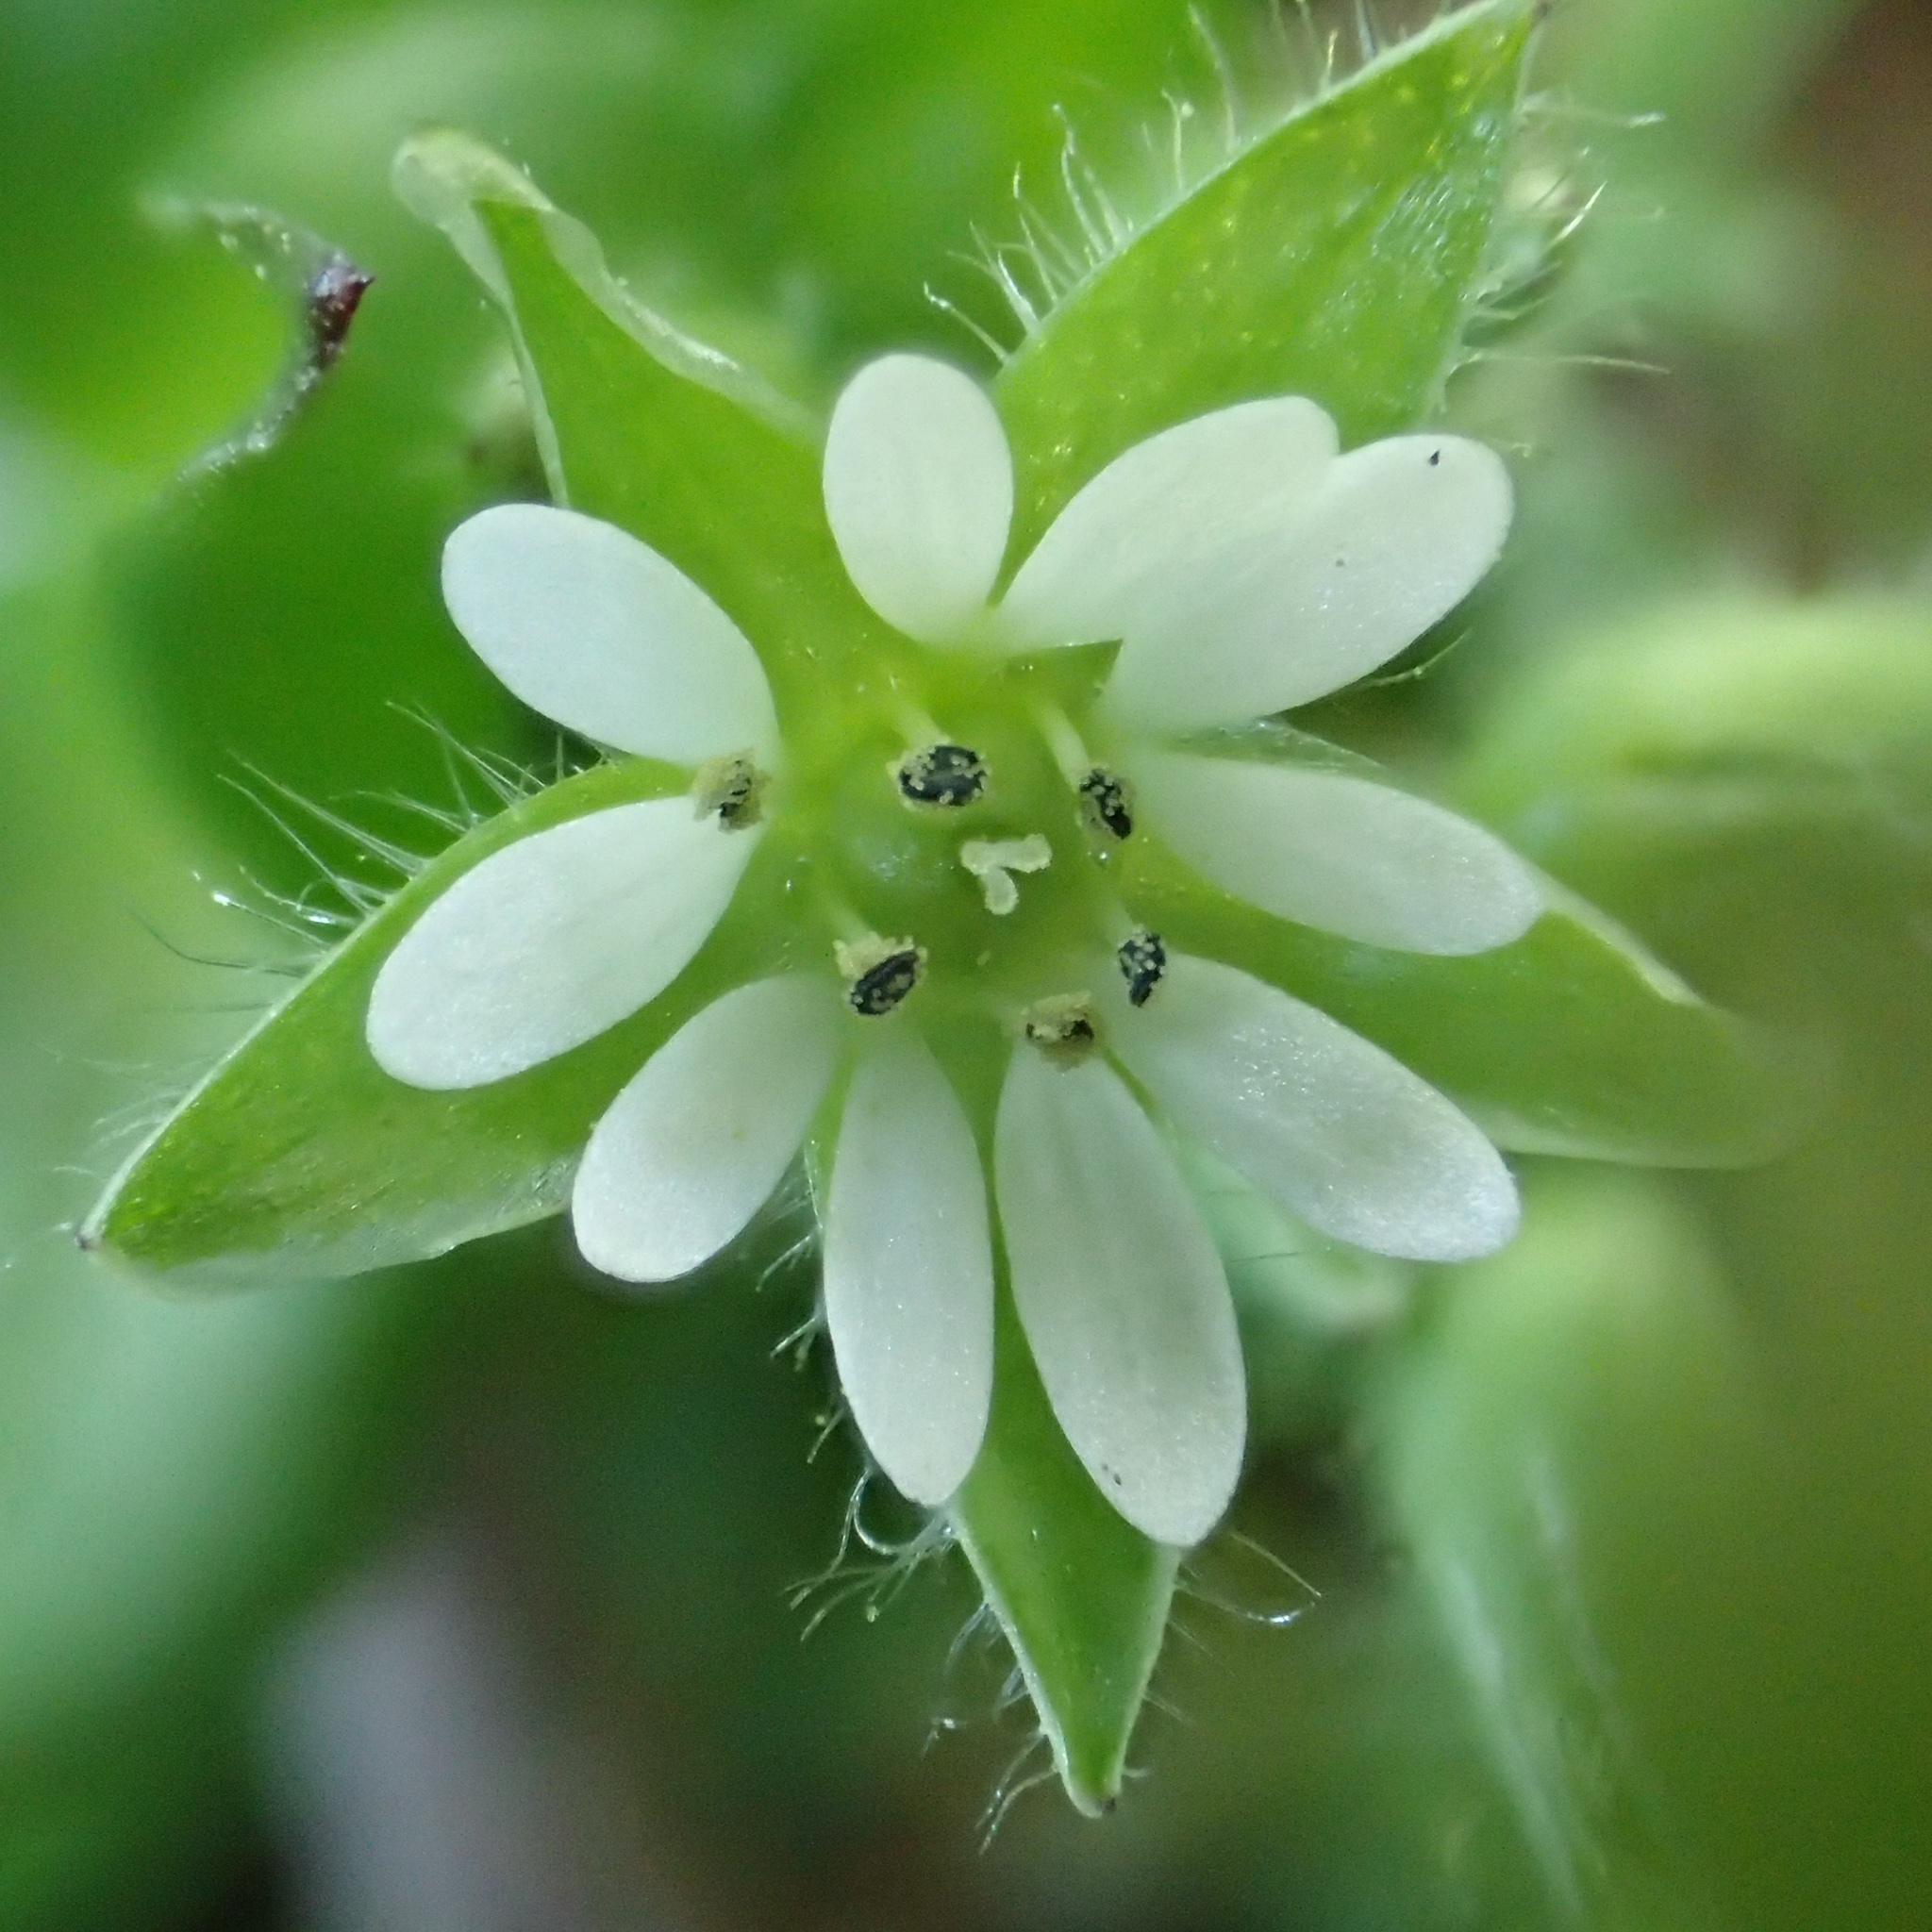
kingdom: Plantae
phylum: Tracheophyta
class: Magnoliopsida
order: Caryophyllales
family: Caryophyllaceae
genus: Stellaria
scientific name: Stellaria media
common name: Common chickweed
